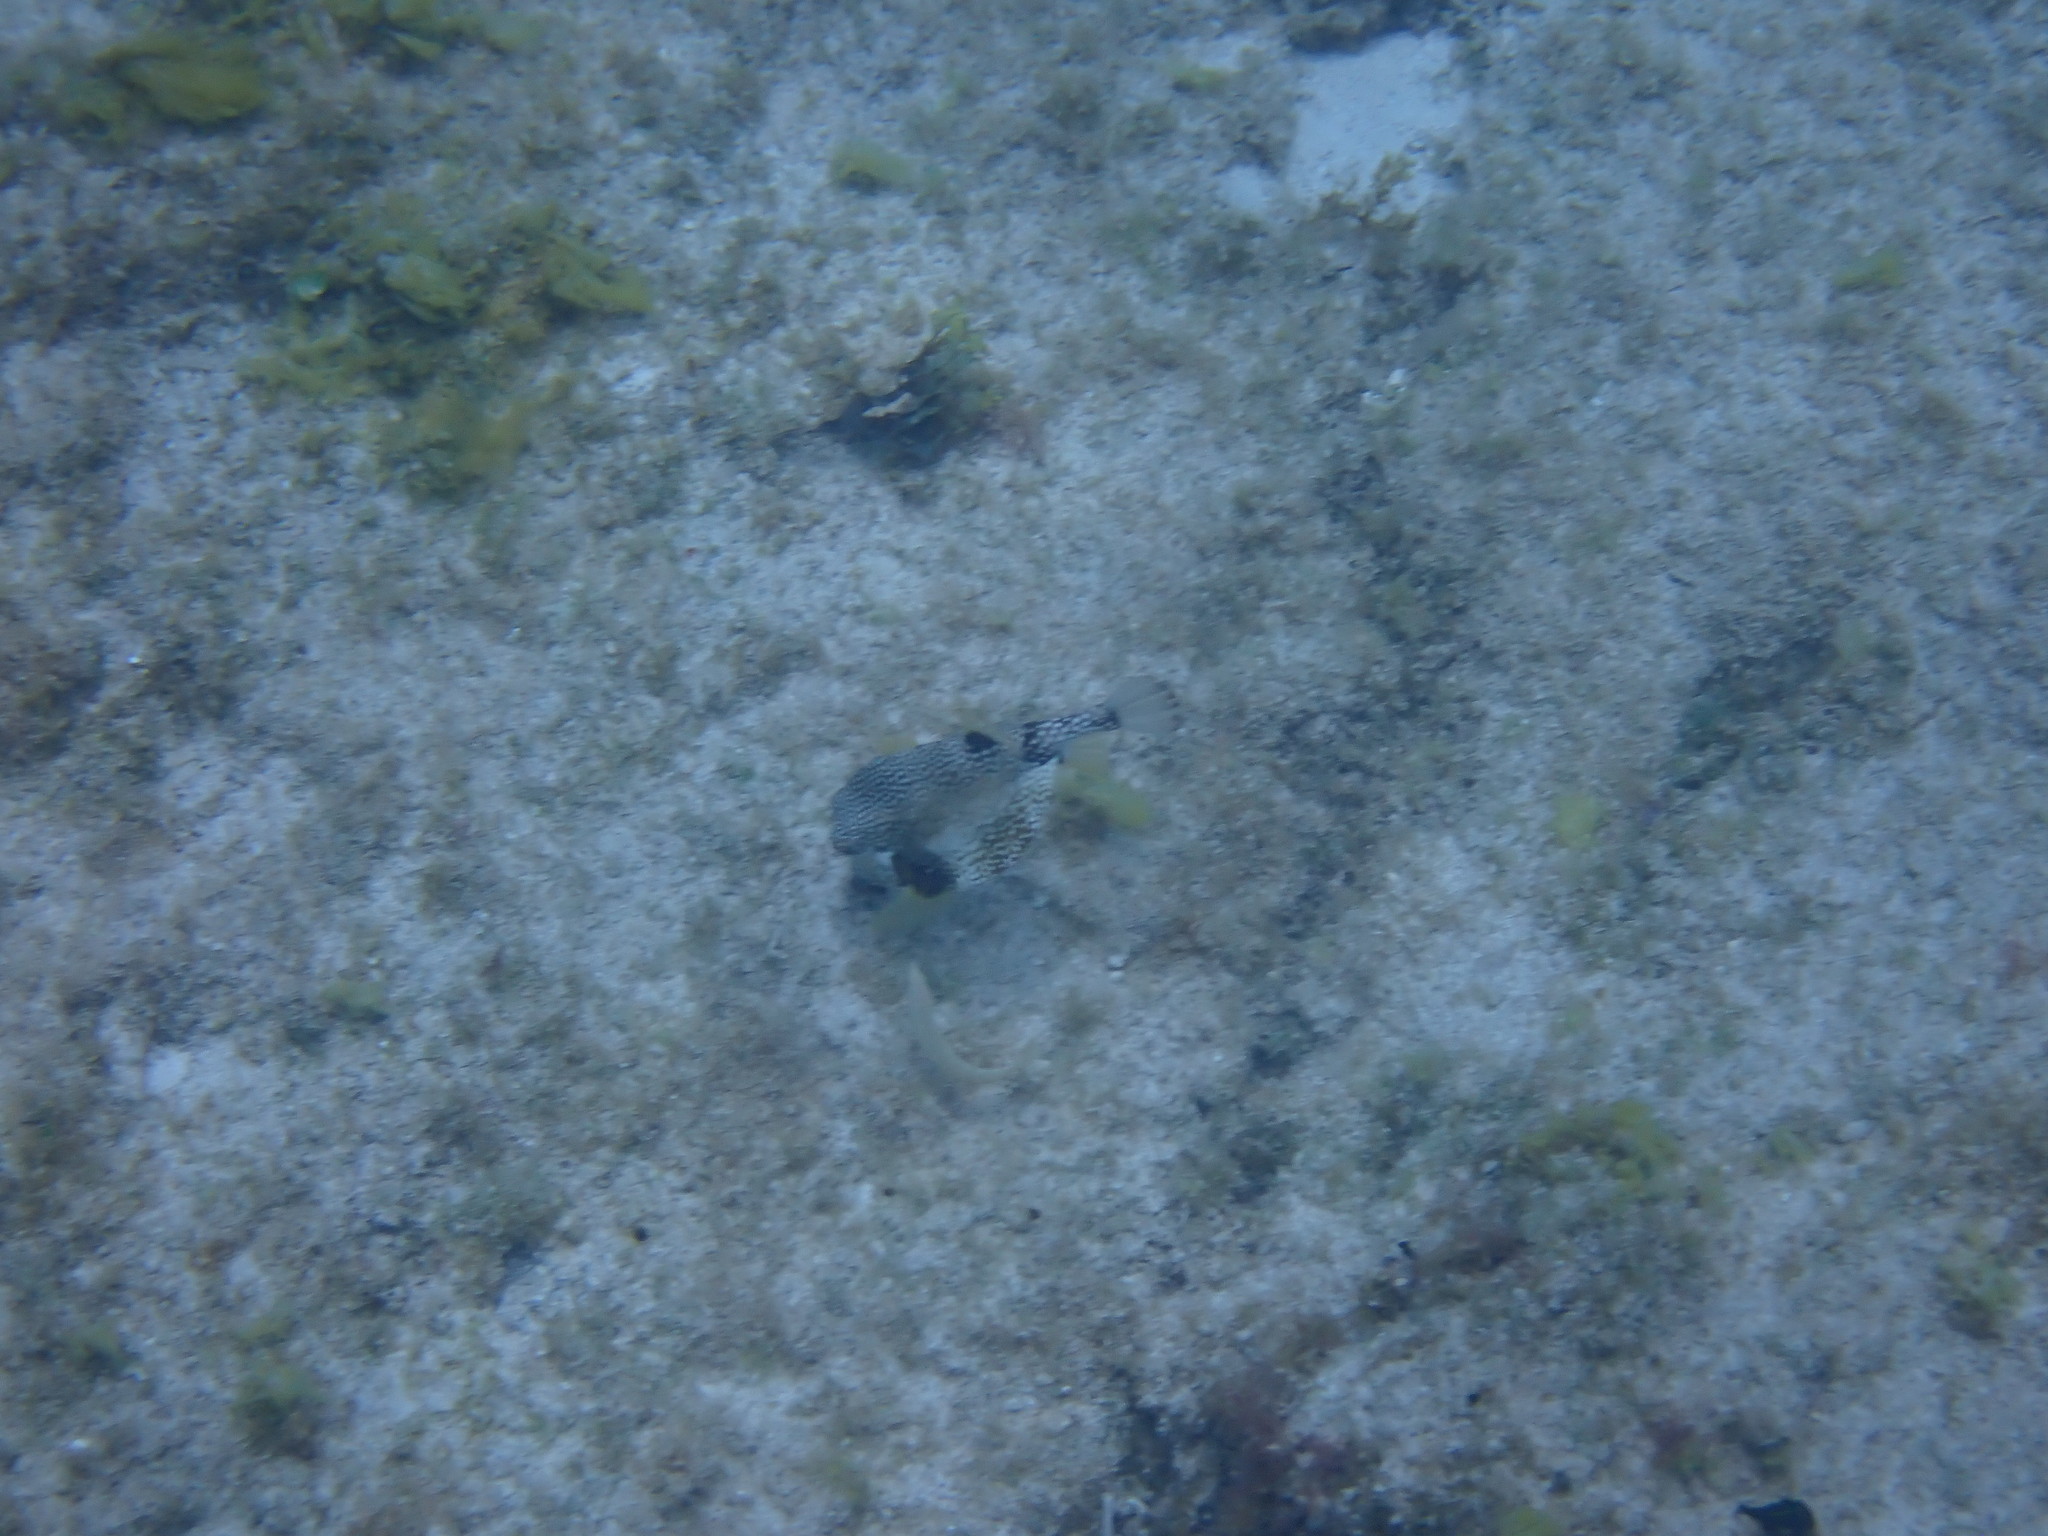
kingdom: Animalia
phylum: Chordata
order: Tetraodontiformes
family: Ostraciidae
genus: Lactophrys
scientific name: Lactophrys triqueter
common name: Smooth trunkfish
